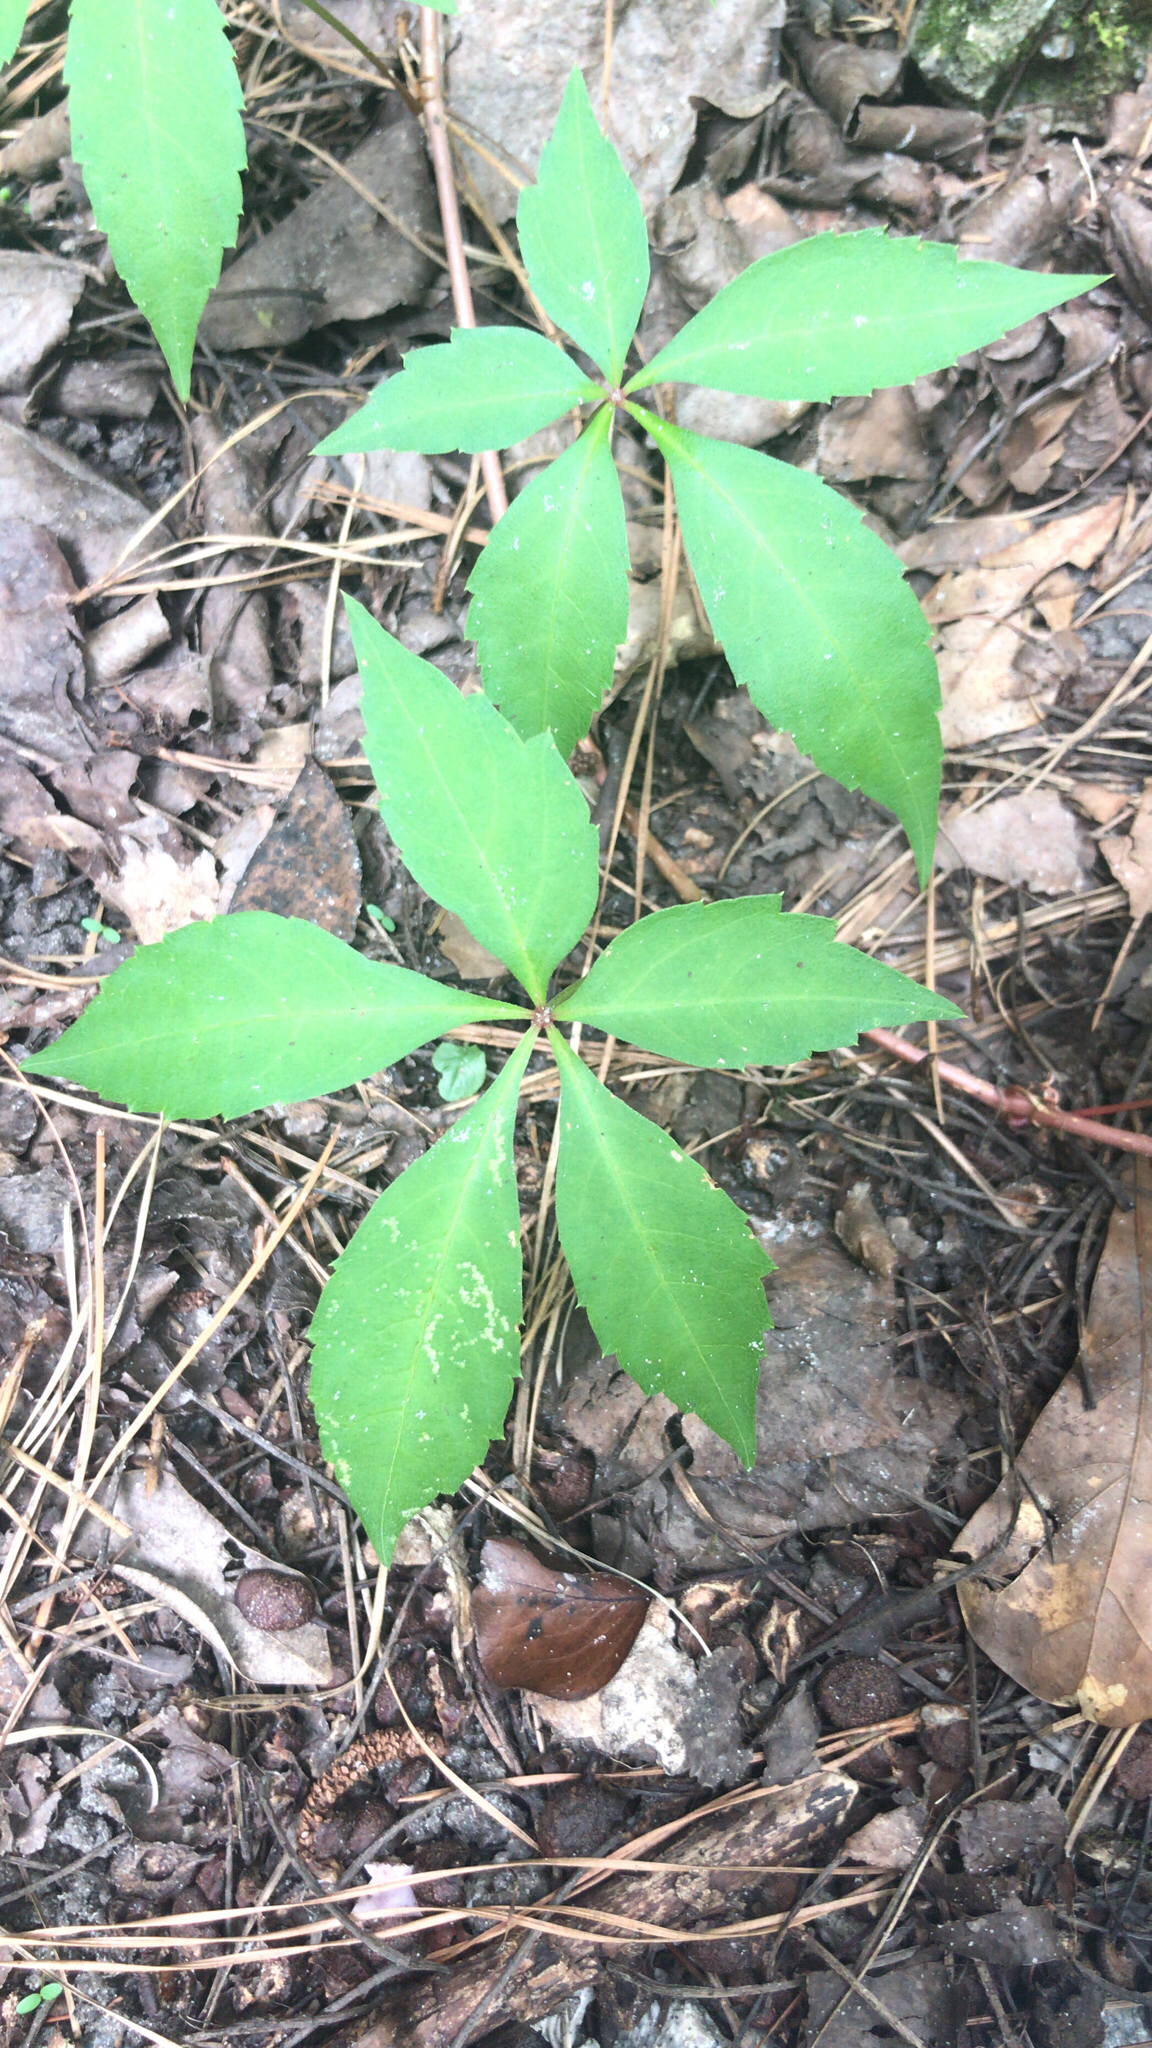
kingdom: Plantae
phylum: Tracheophyta
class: Magnoliopsida
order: Vitales
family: Vitaceae
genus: Parthenocissus
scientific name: Parthenocissus quinquefolia
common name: Virginia-creeper
